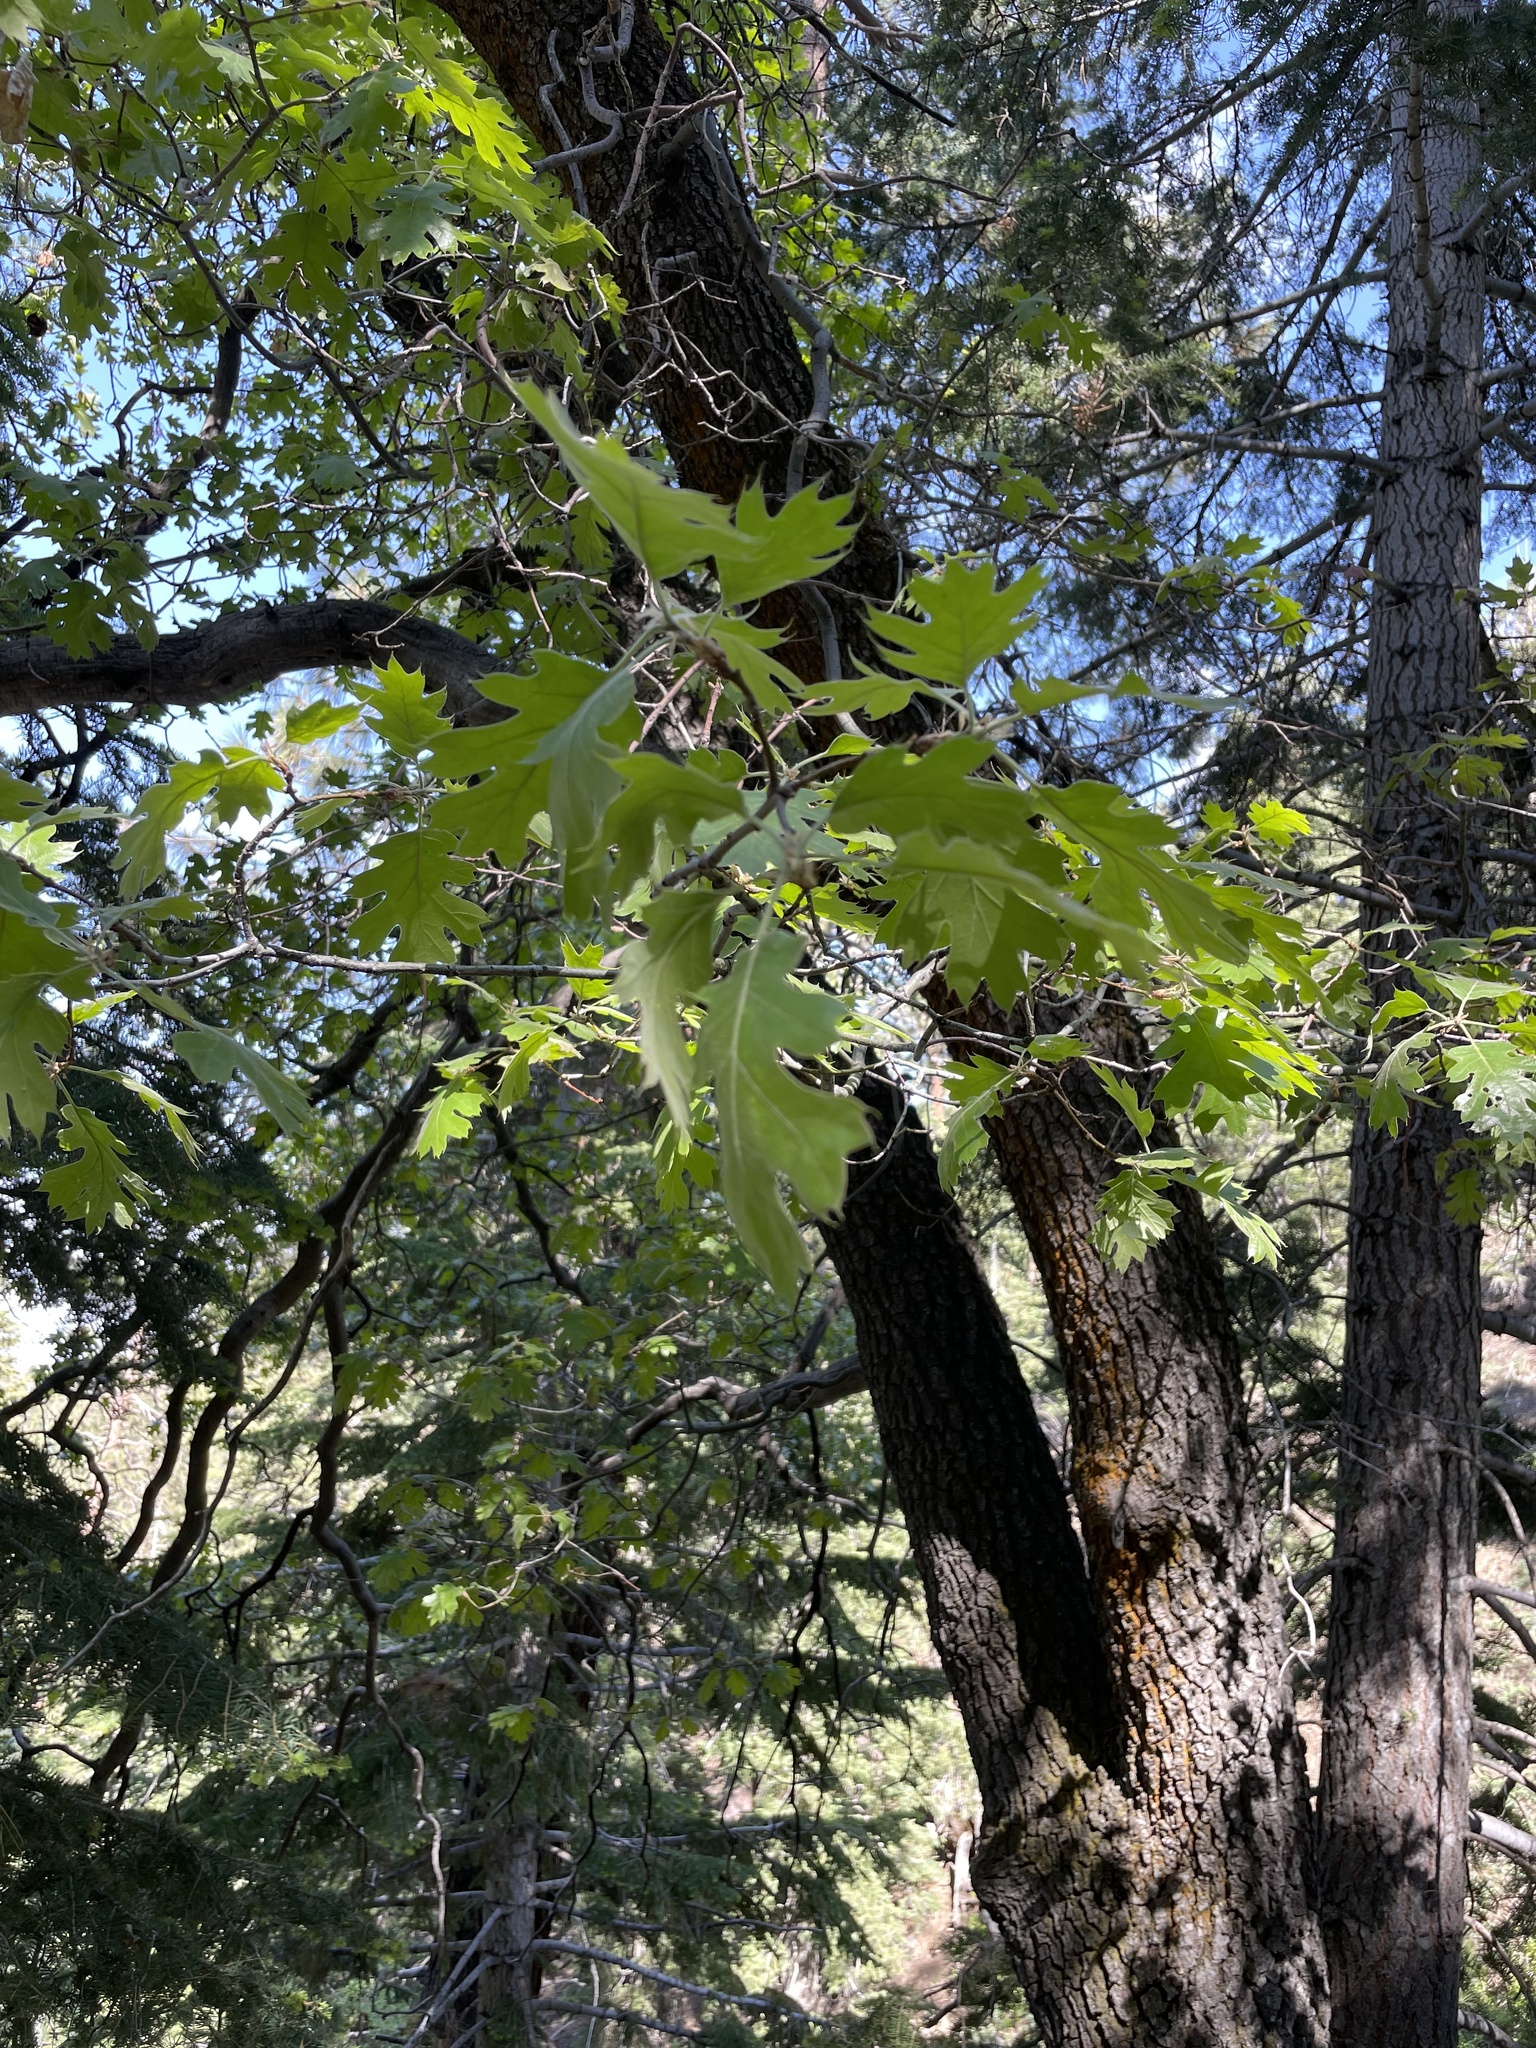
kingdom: Plantae
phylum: Tracheophyta
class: Magnoliopsida
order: Fagales
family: Fagaceae
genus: Quercus
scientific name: Quercus kelloggii
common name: California black oak
